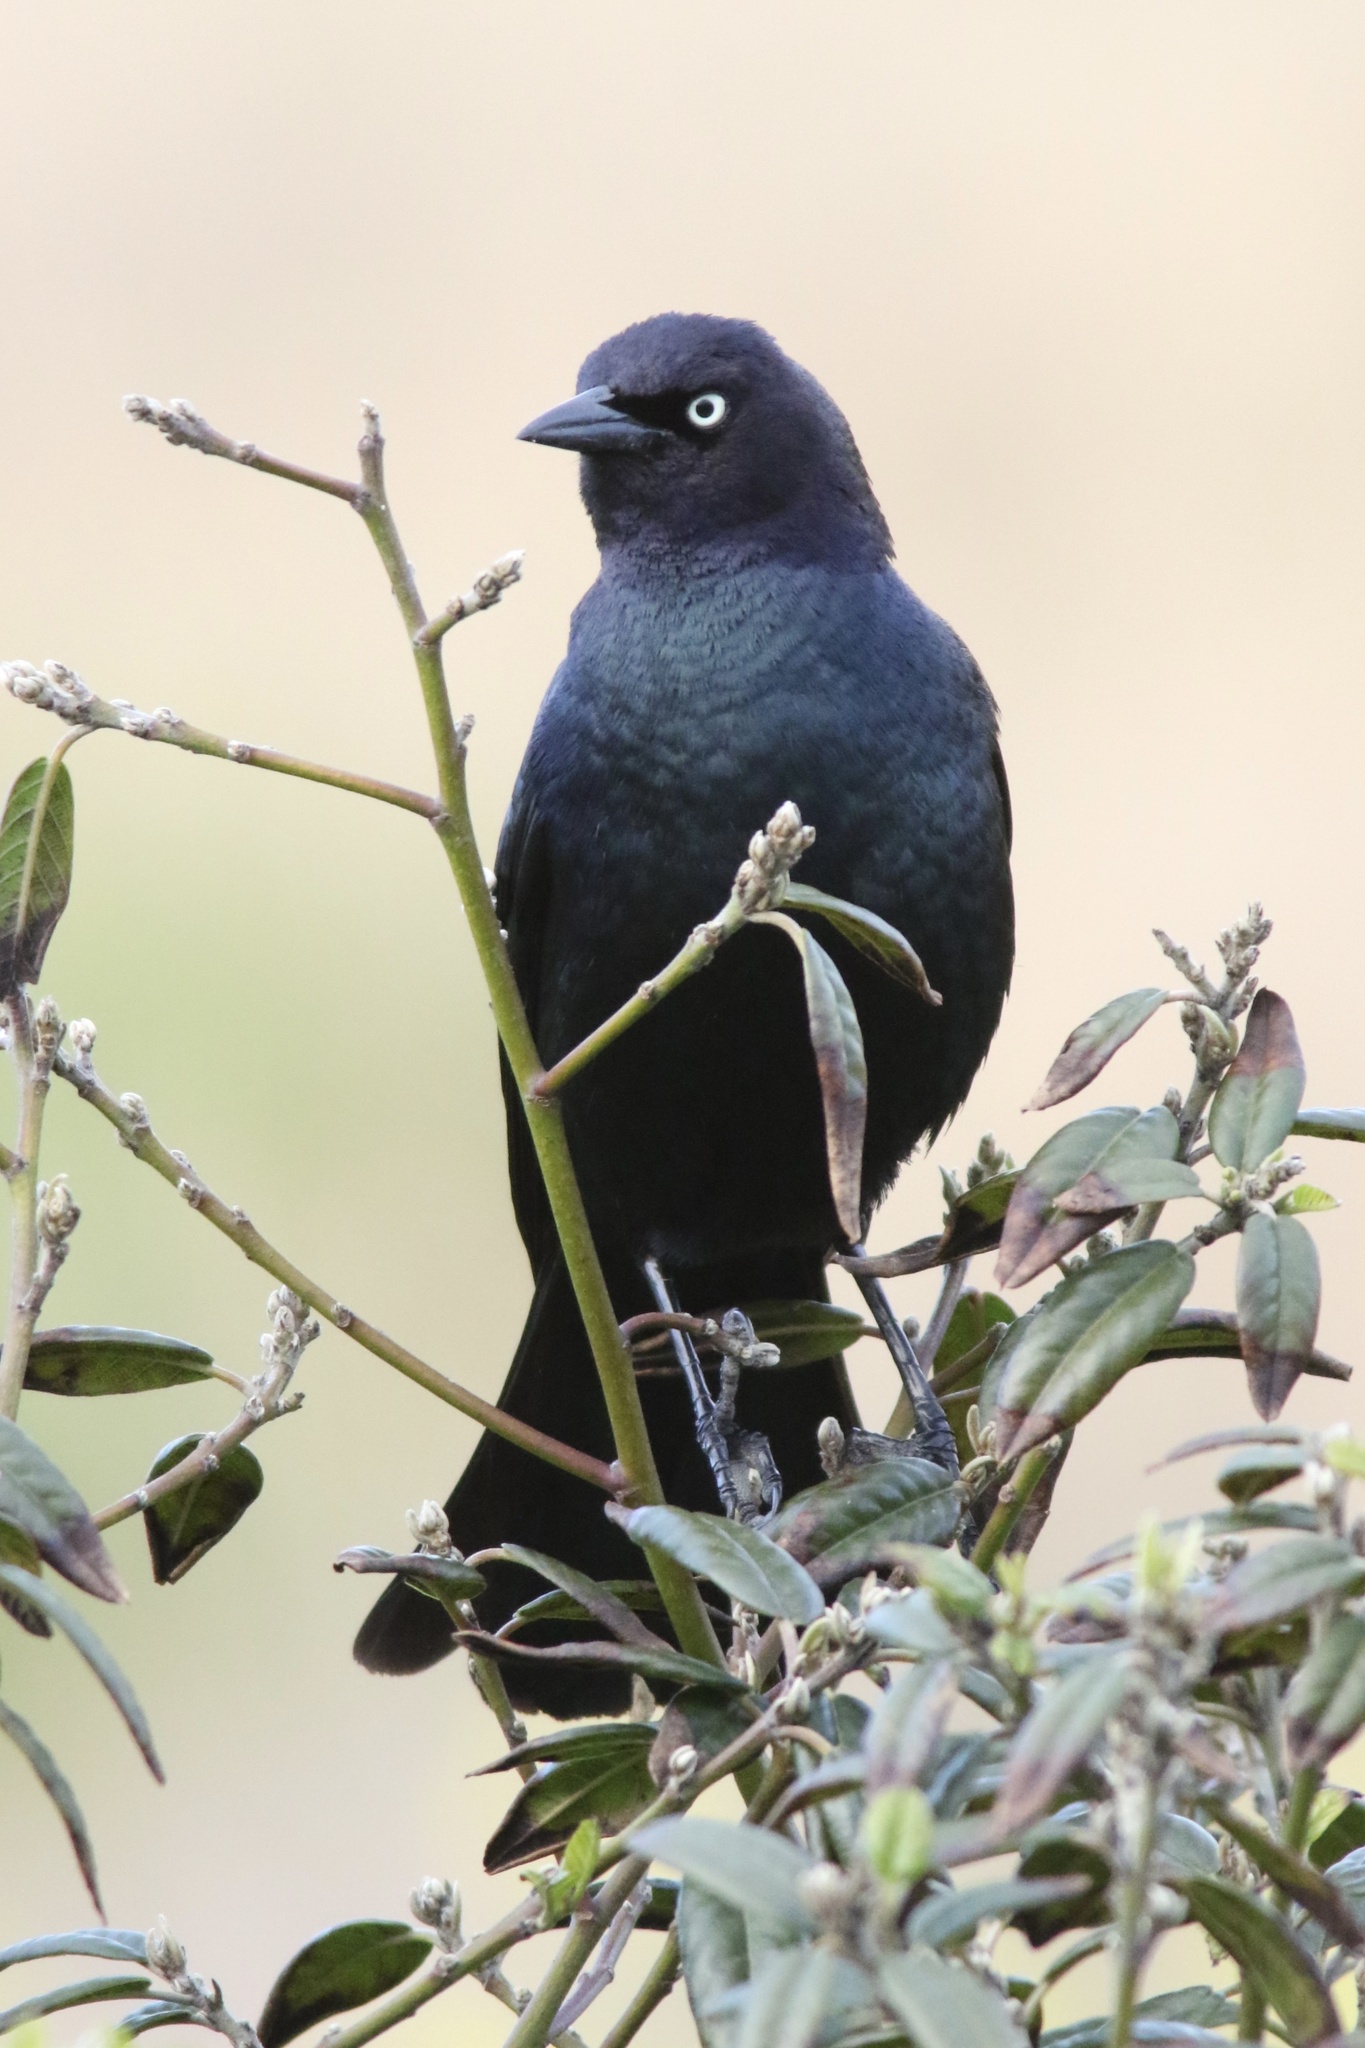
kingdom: Animalia
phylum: Chordata
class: Aves
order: Passeriformes
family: Icteridae
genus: Euphagus
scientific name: Euphagus cyanocephalus
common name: Brewer's blackbird
